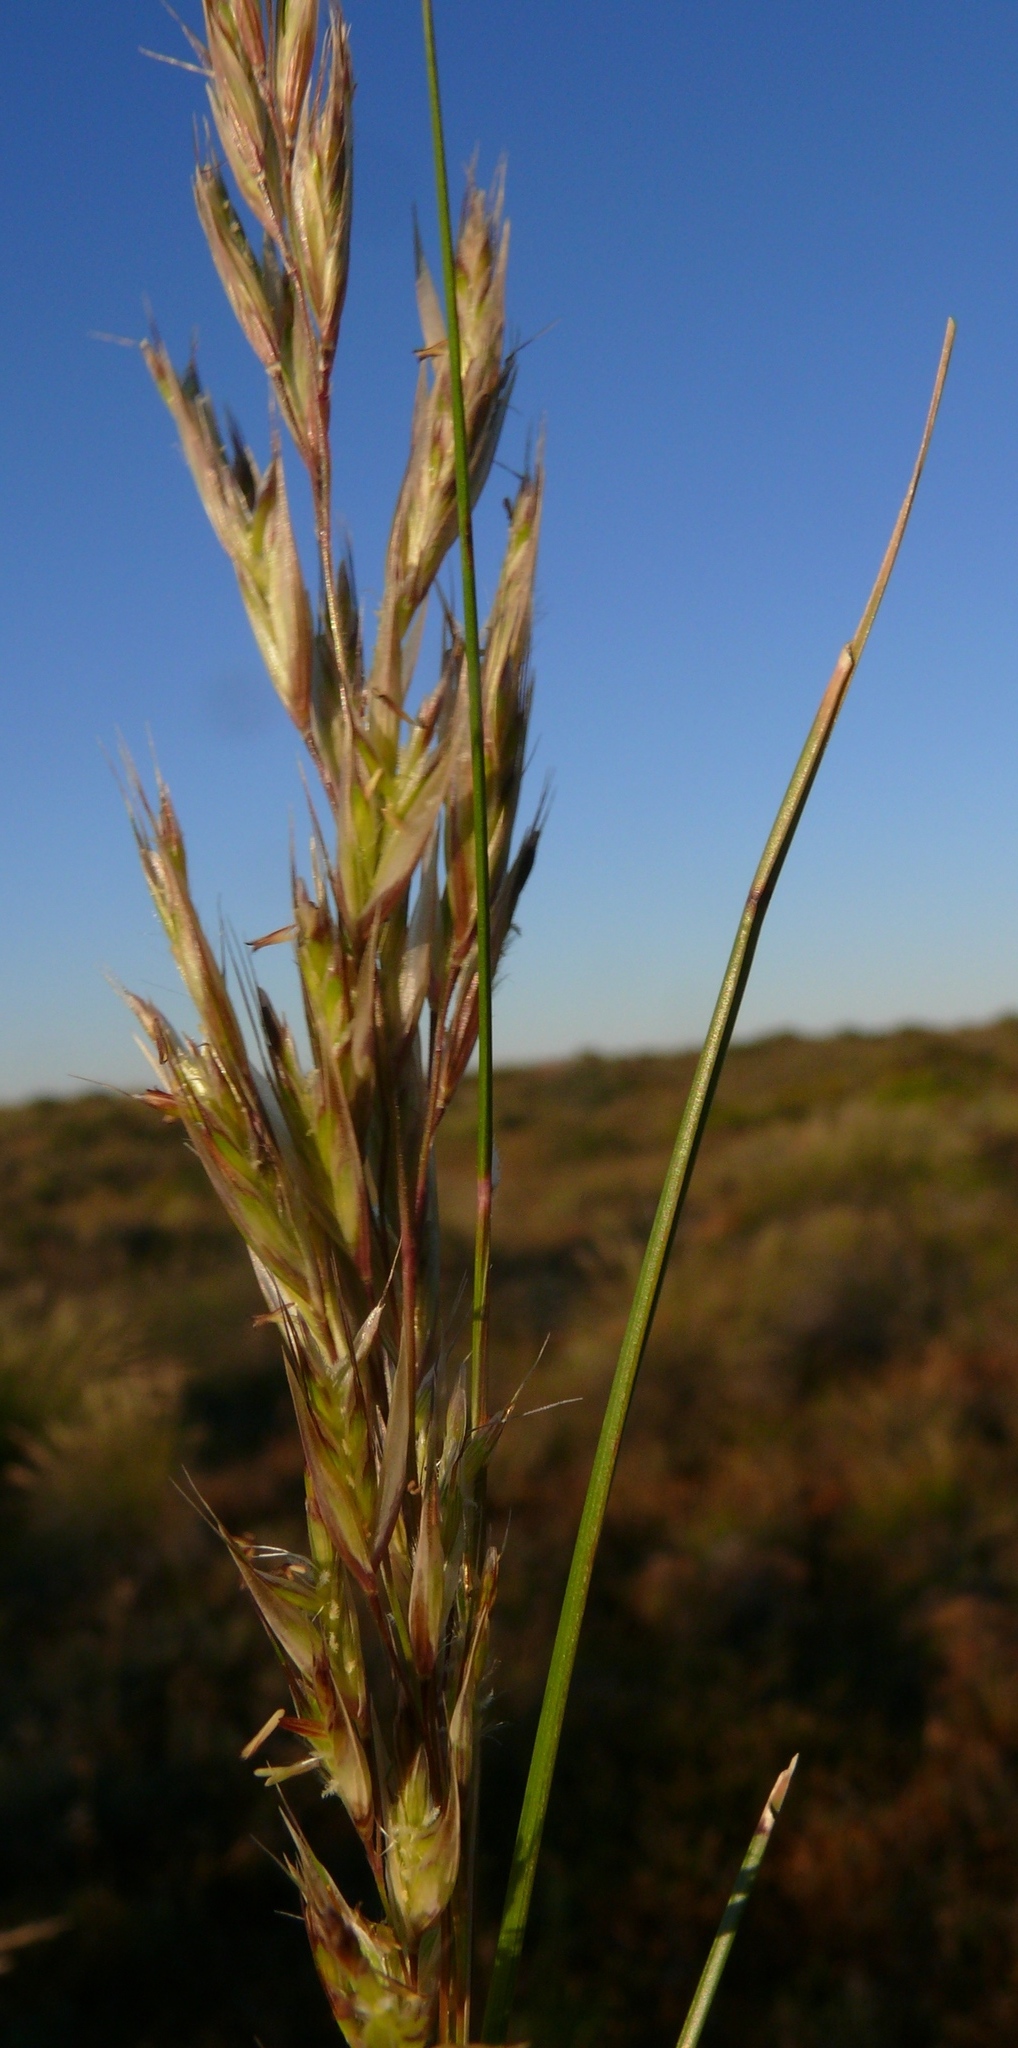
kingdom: Plantae
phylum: Tracheophyta
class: Liliopsida
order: Poales
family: Poaceae
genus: Tenaxia
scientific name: Tenaxia stricta
